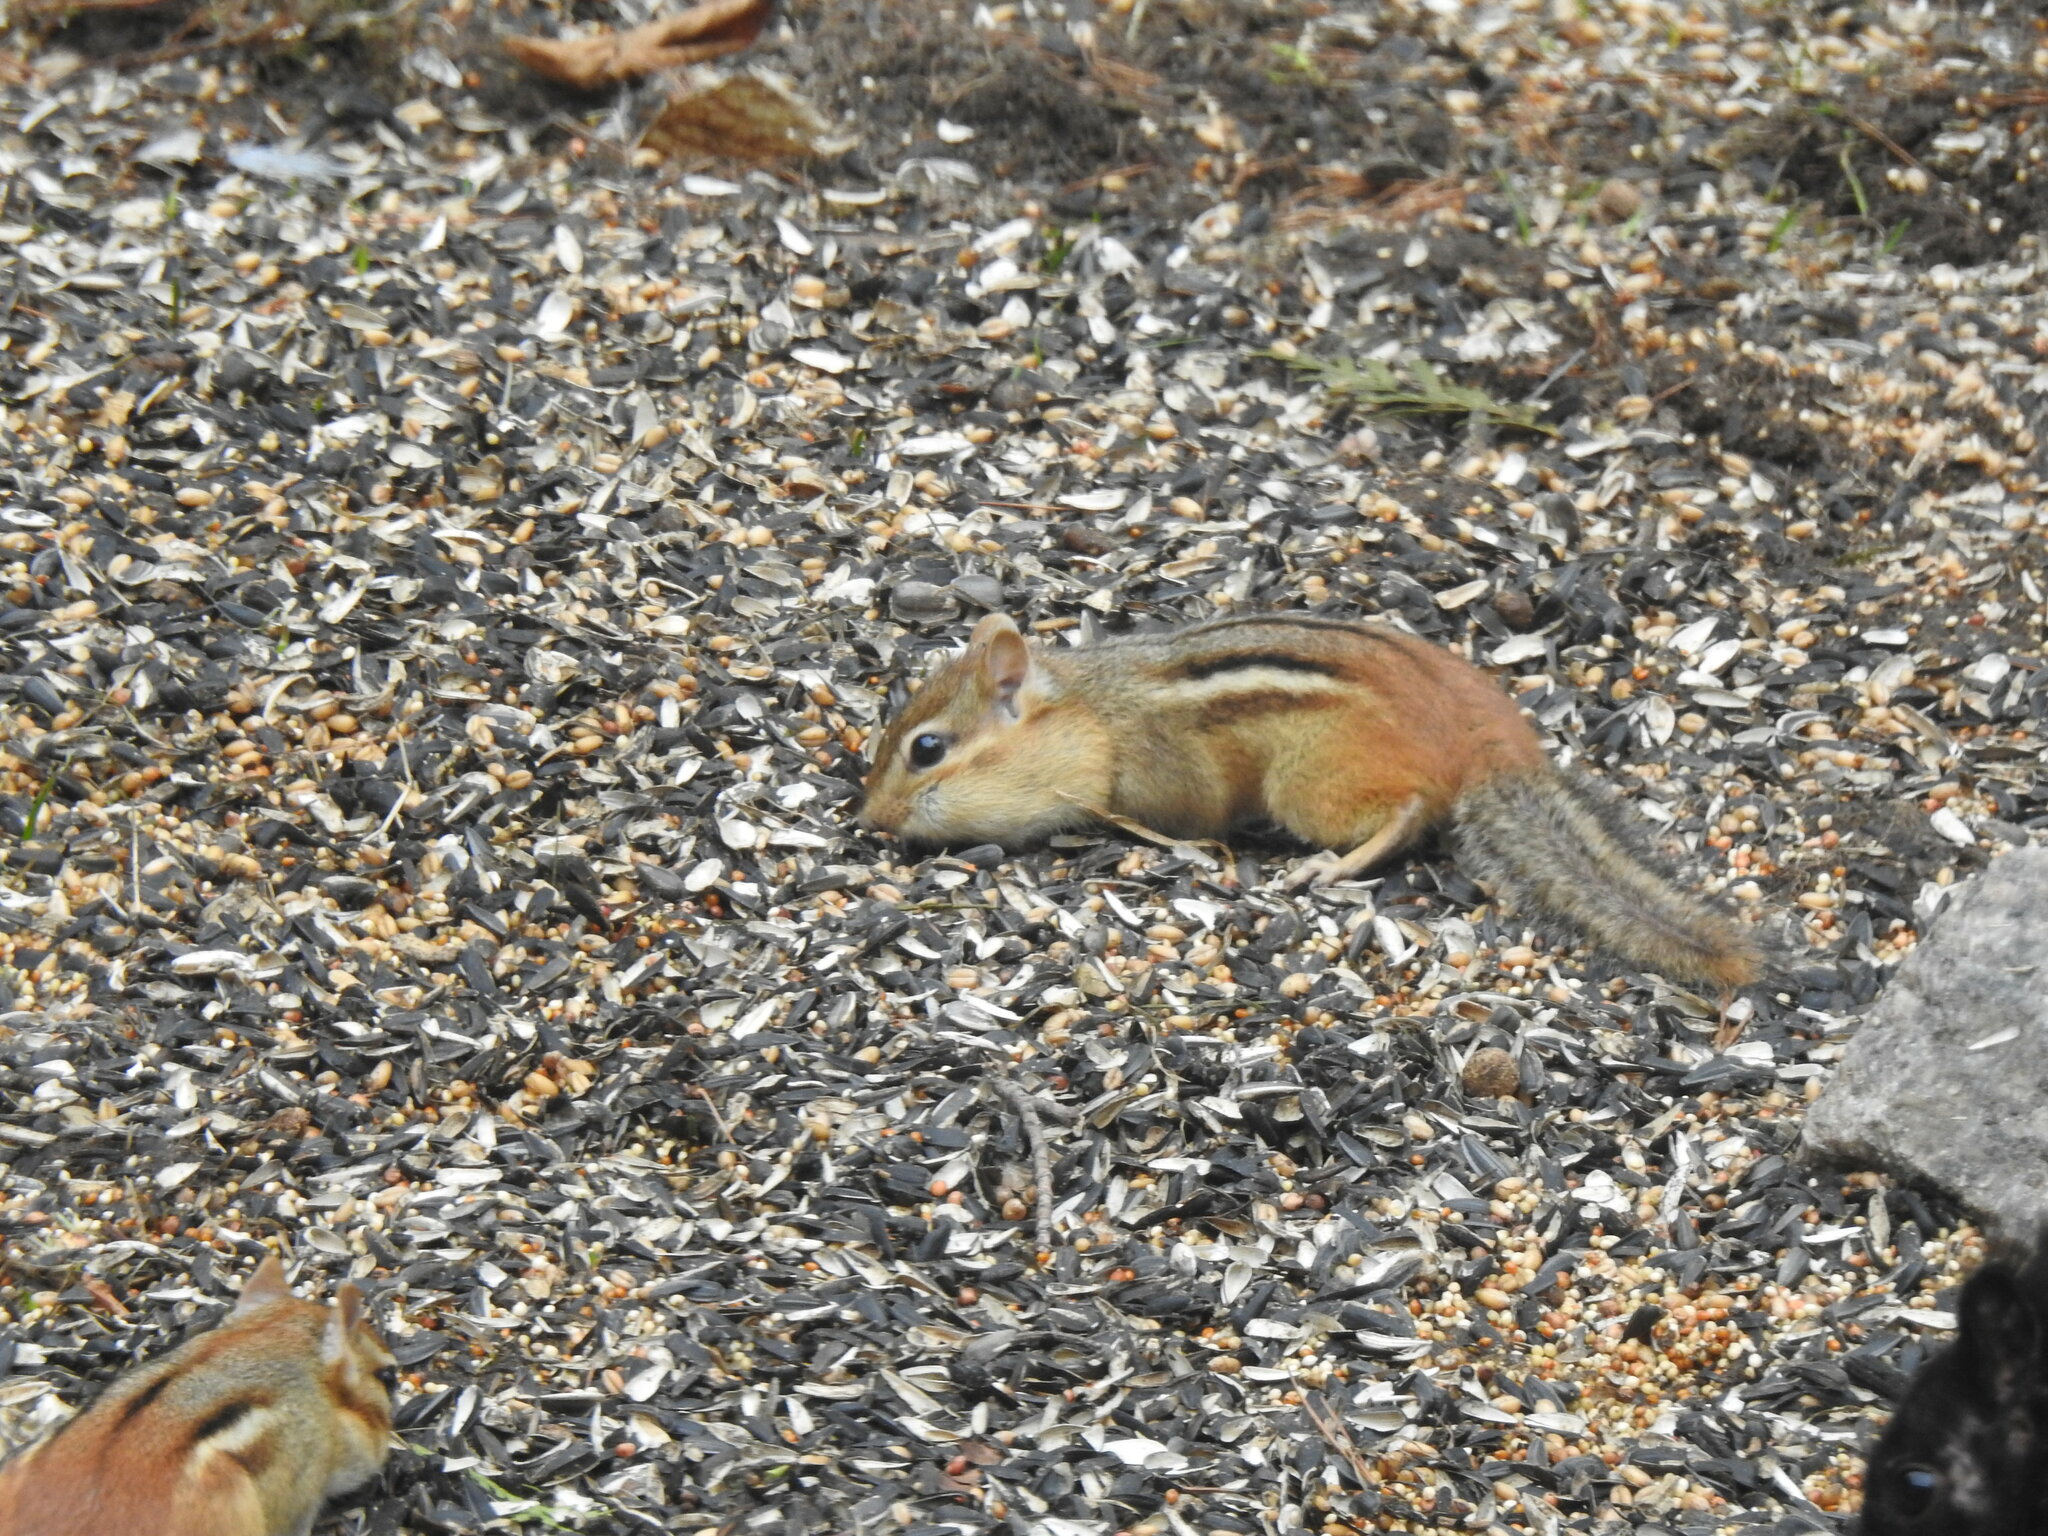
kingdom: Animalia
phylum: Chordata
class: Mammalia
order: Rodentia
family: Sciuridae
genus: Tamias
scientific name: Tamias striatus
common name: Eastern chipmunk
